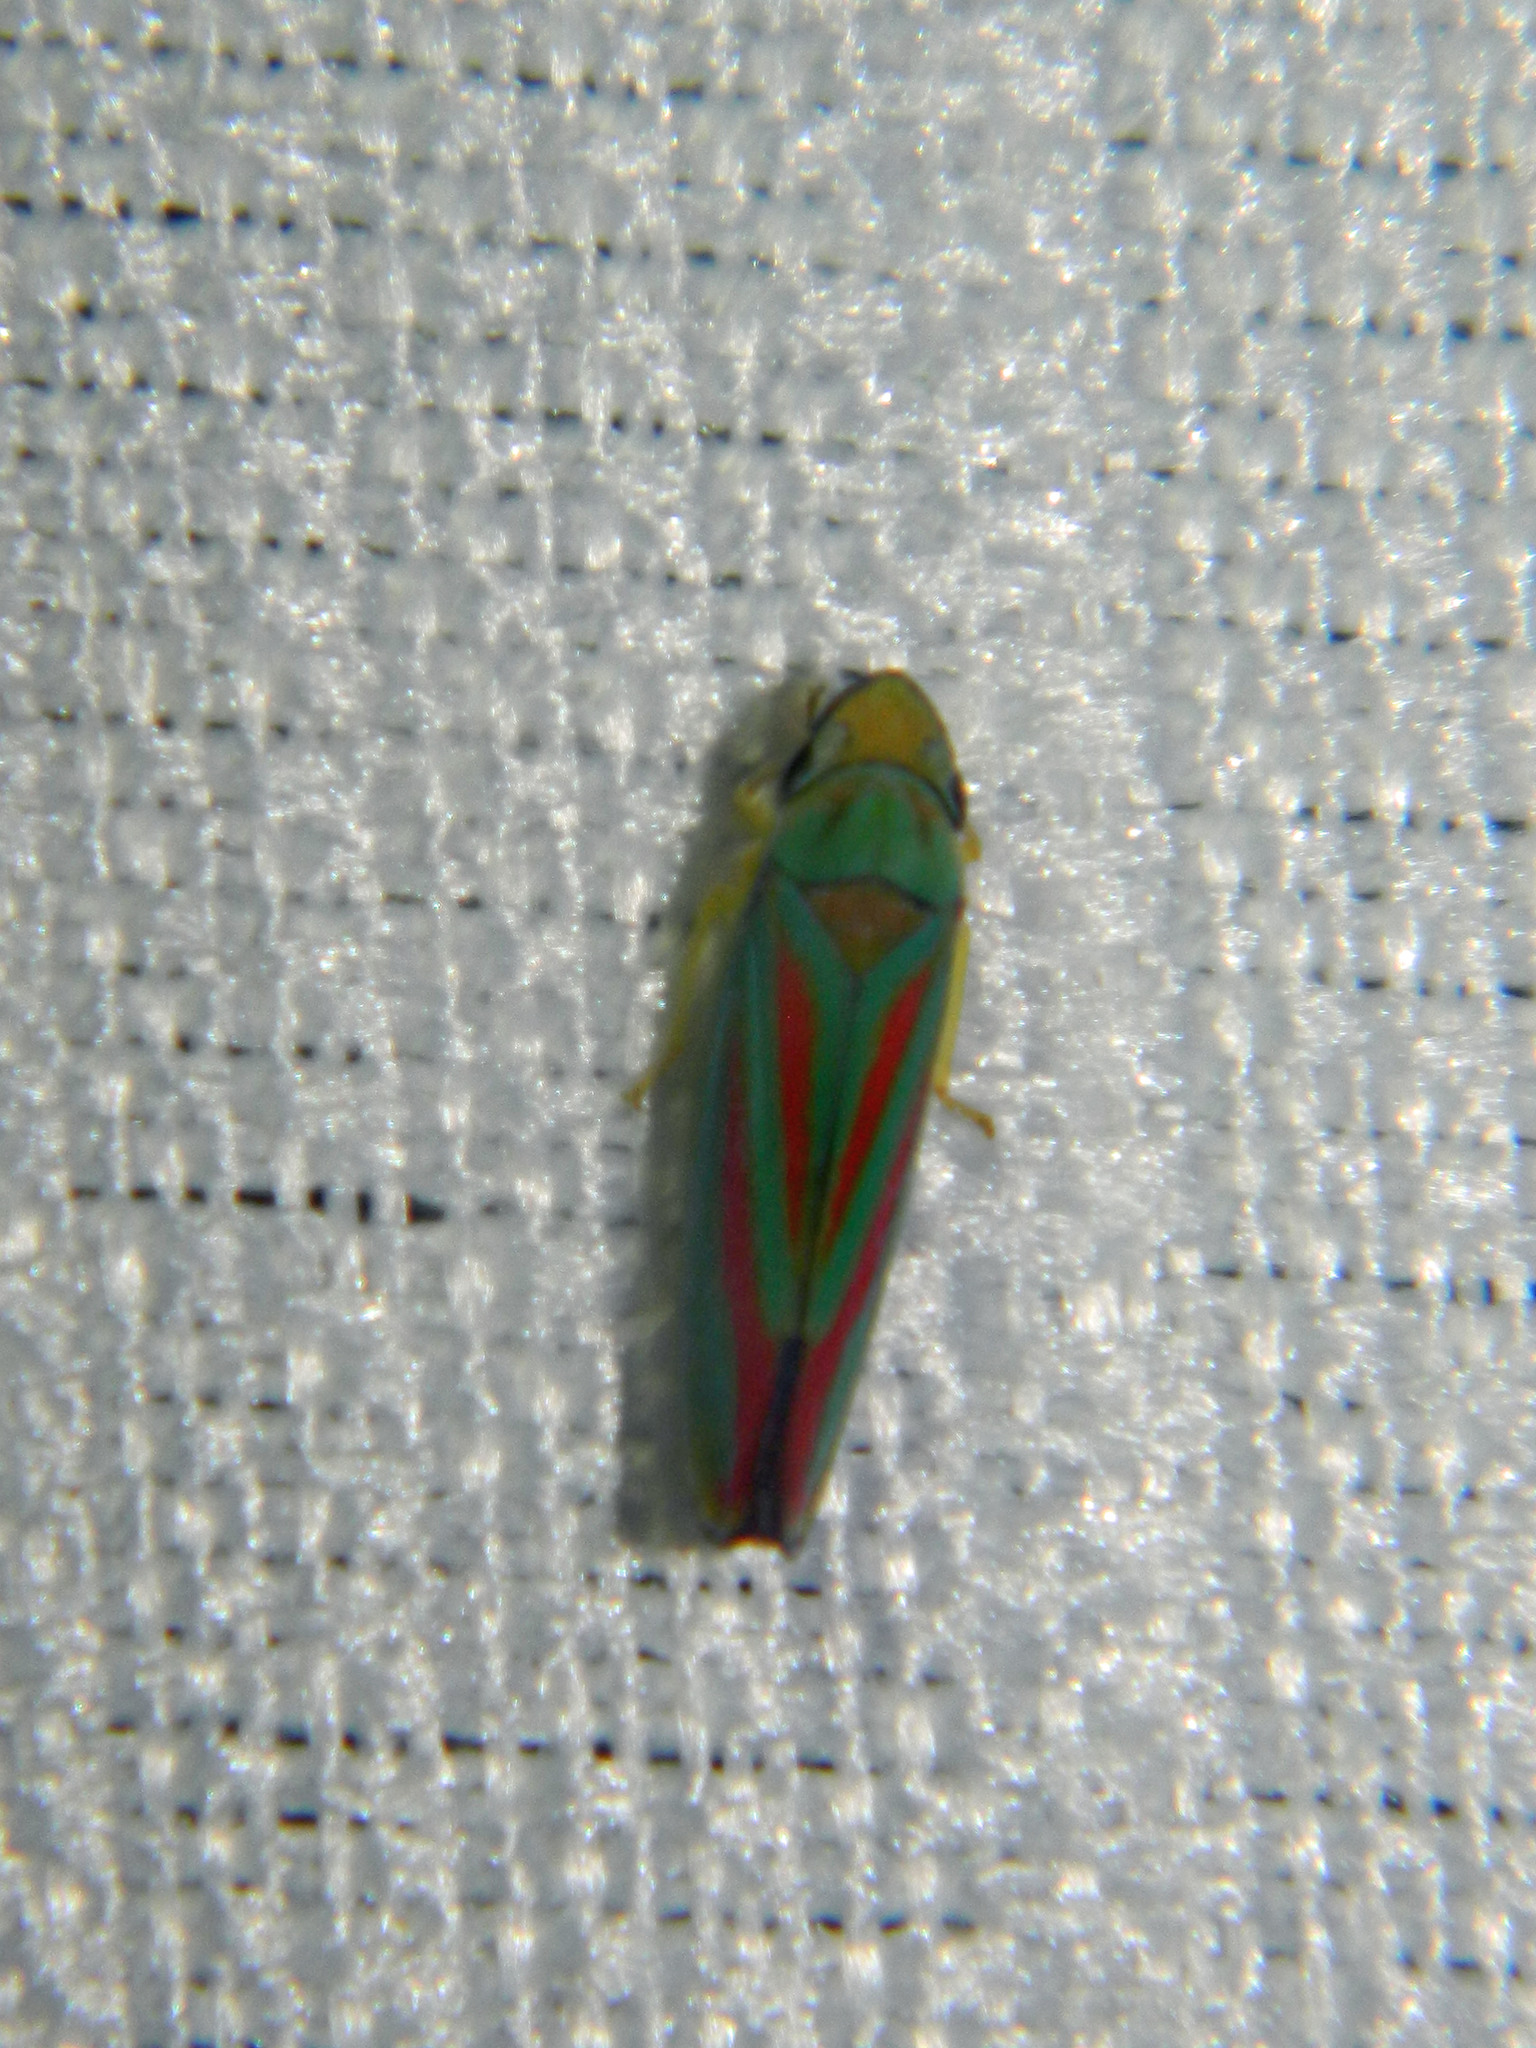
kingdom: Animalia
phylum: Arthropoda
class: Insecta
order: Hemiptera
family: Cicadellidae
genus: Graphocephala
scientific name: Graphocephala fennahi
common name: Rhododendron leafhopper
